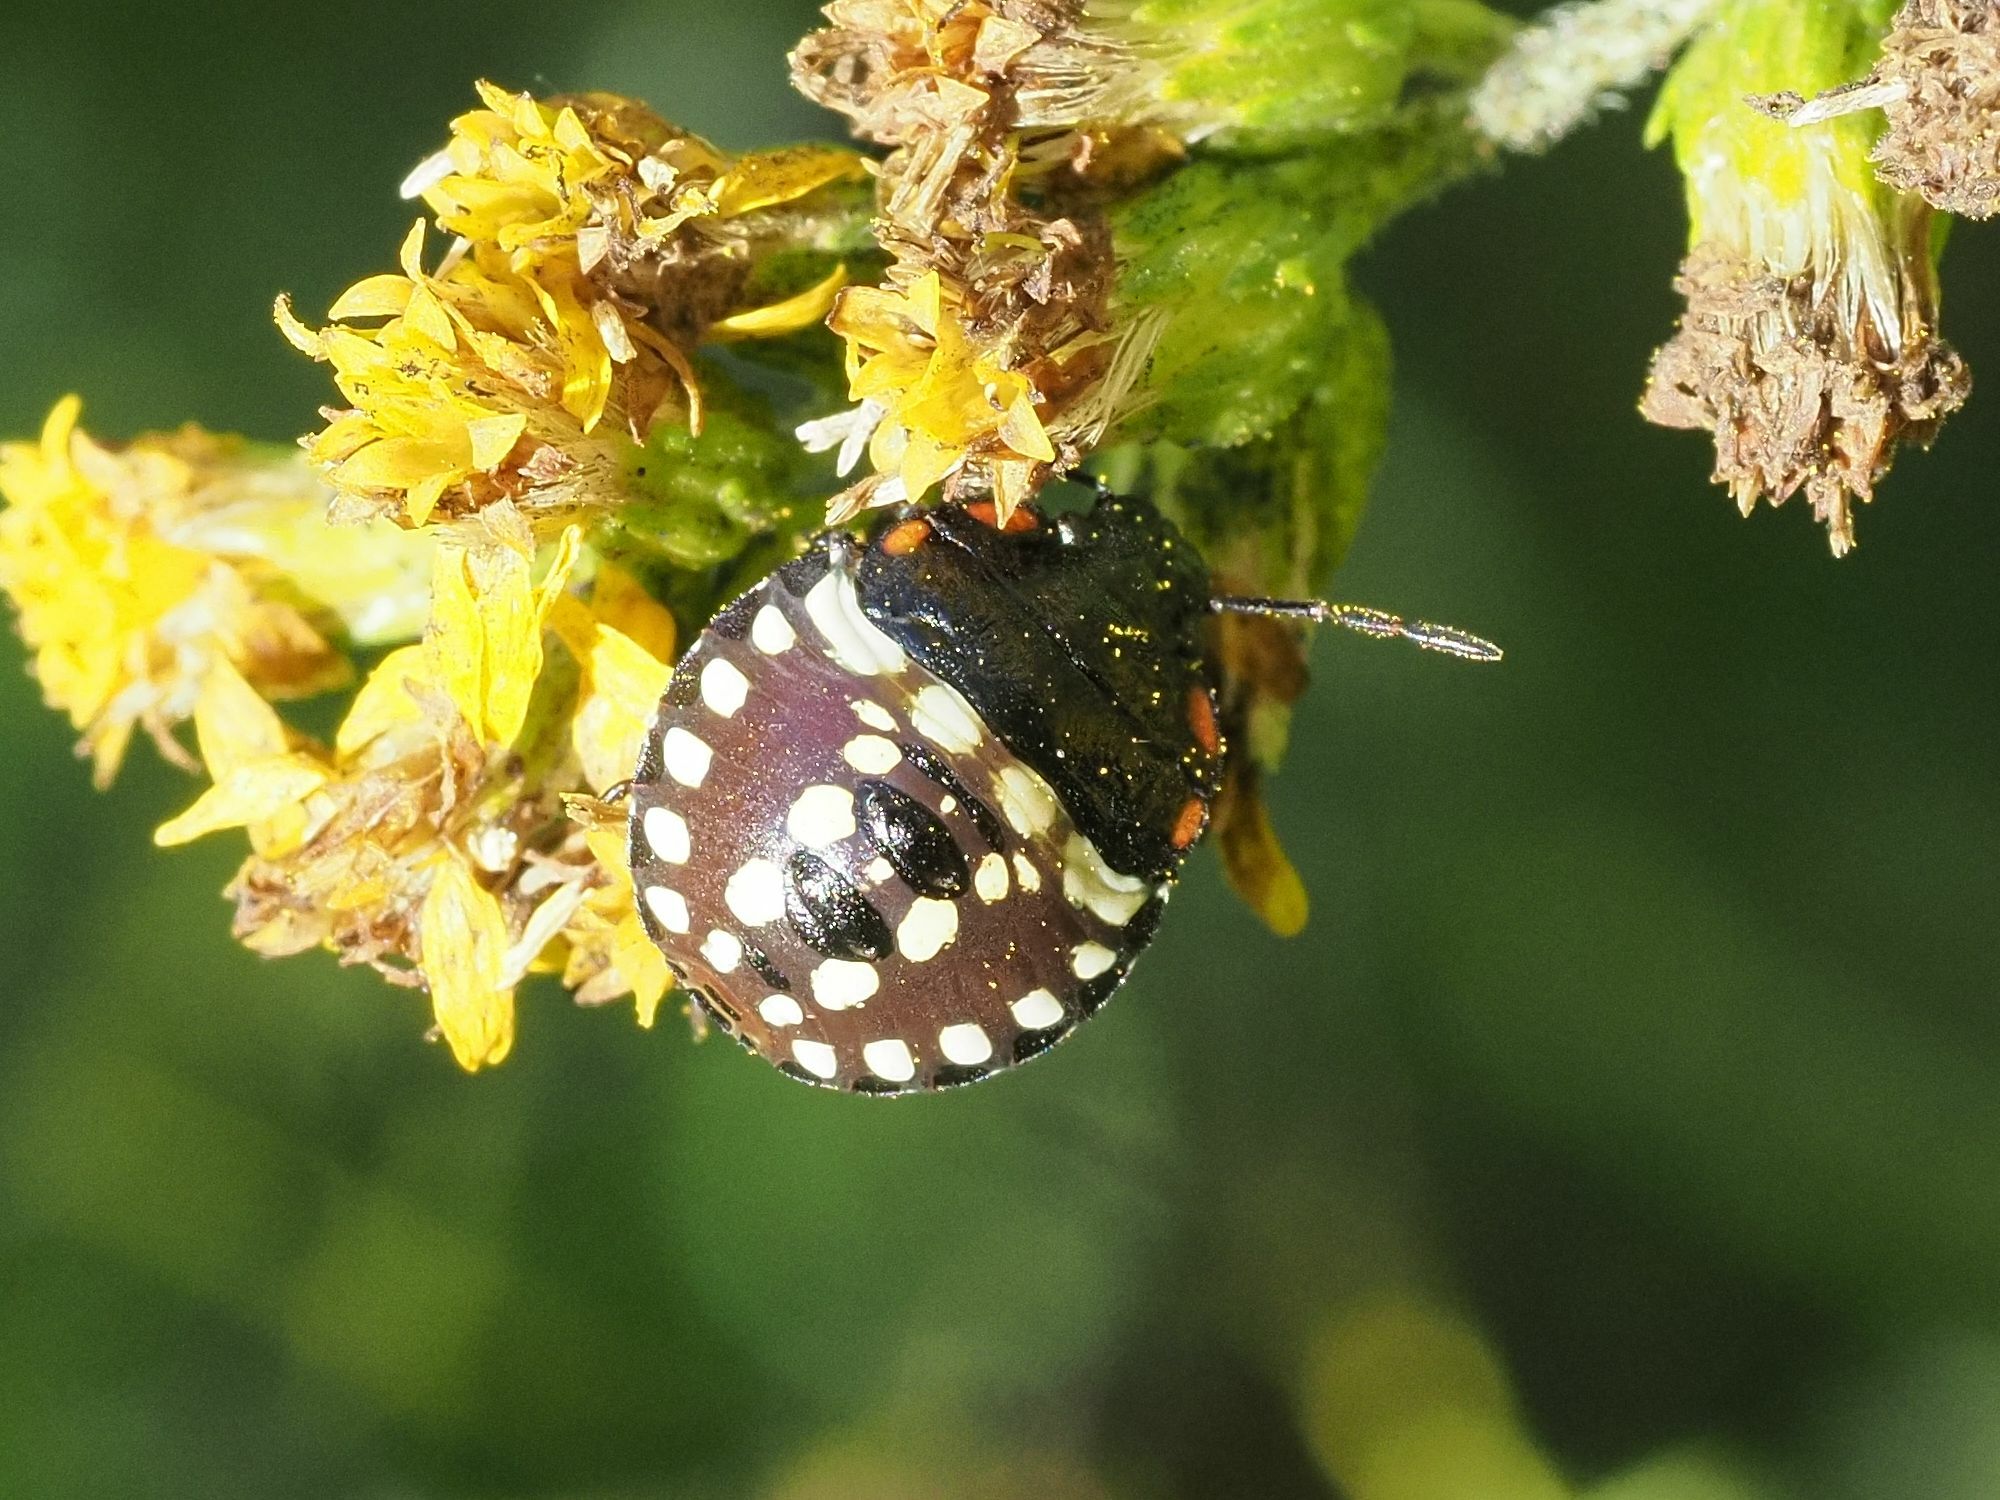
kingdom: Animalia
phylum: Arthropoda
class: Insecta
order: Hemiptera
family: Pentatomidae
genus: Nezara
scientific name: Nezara viridula
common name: Southern green stink bug
